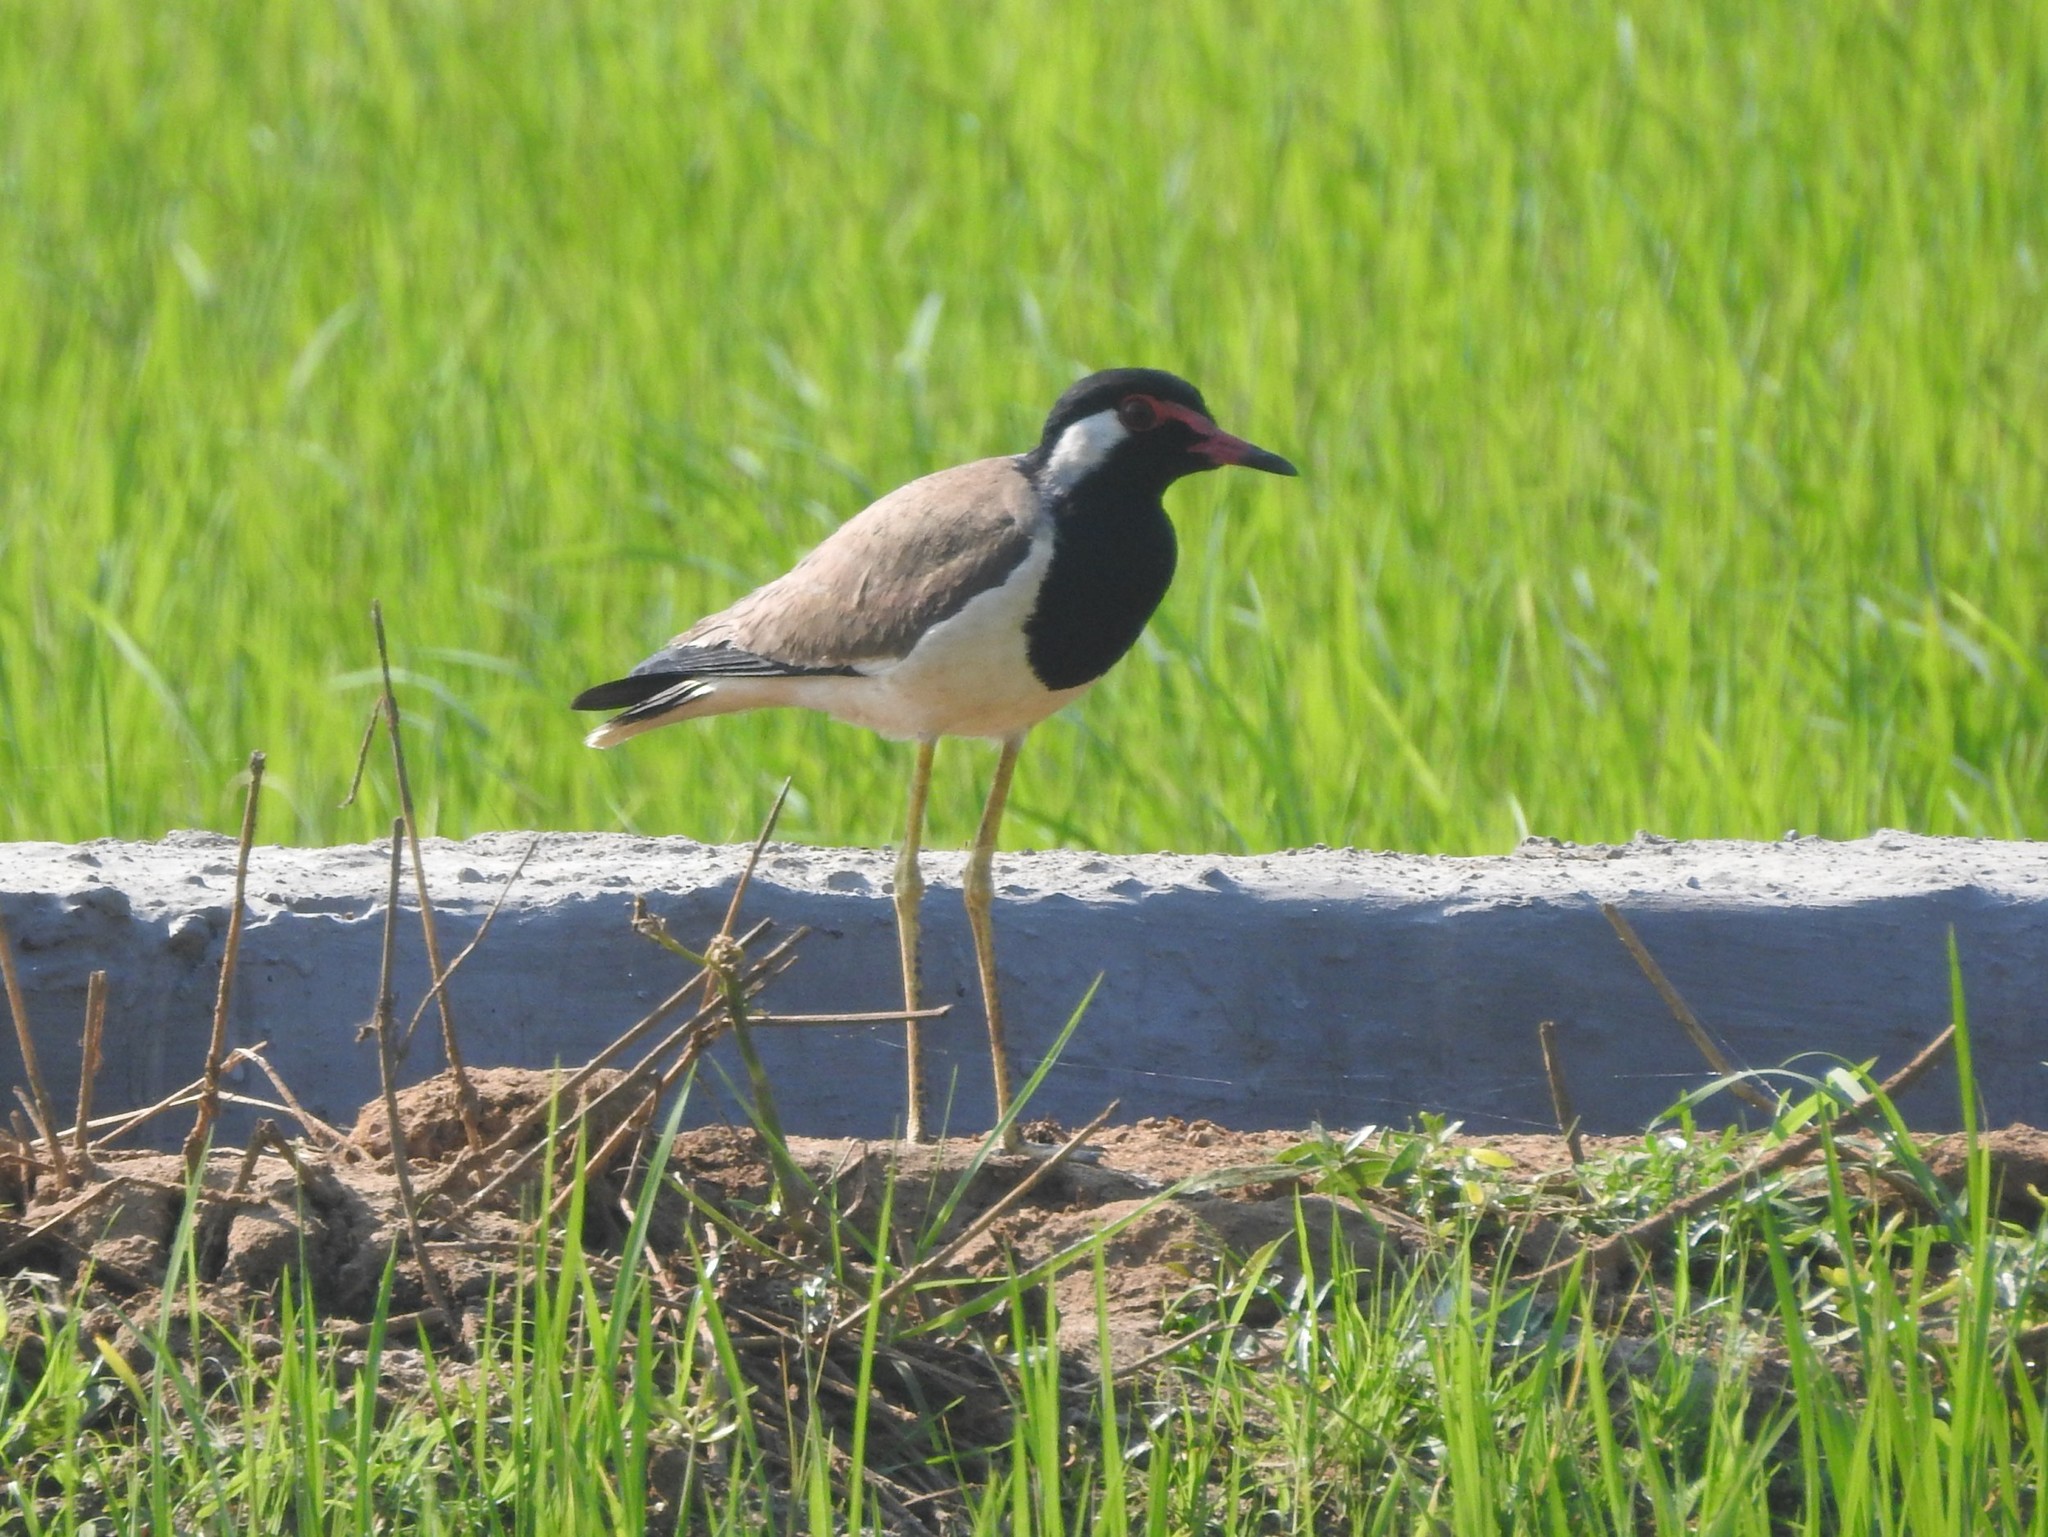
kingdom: Animalia
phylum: Chordata
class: Aves
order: Charadriiformes
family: Charadriidae
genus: Vanellus
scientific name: Vanellus indicus
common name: Red-wattled lapwing
